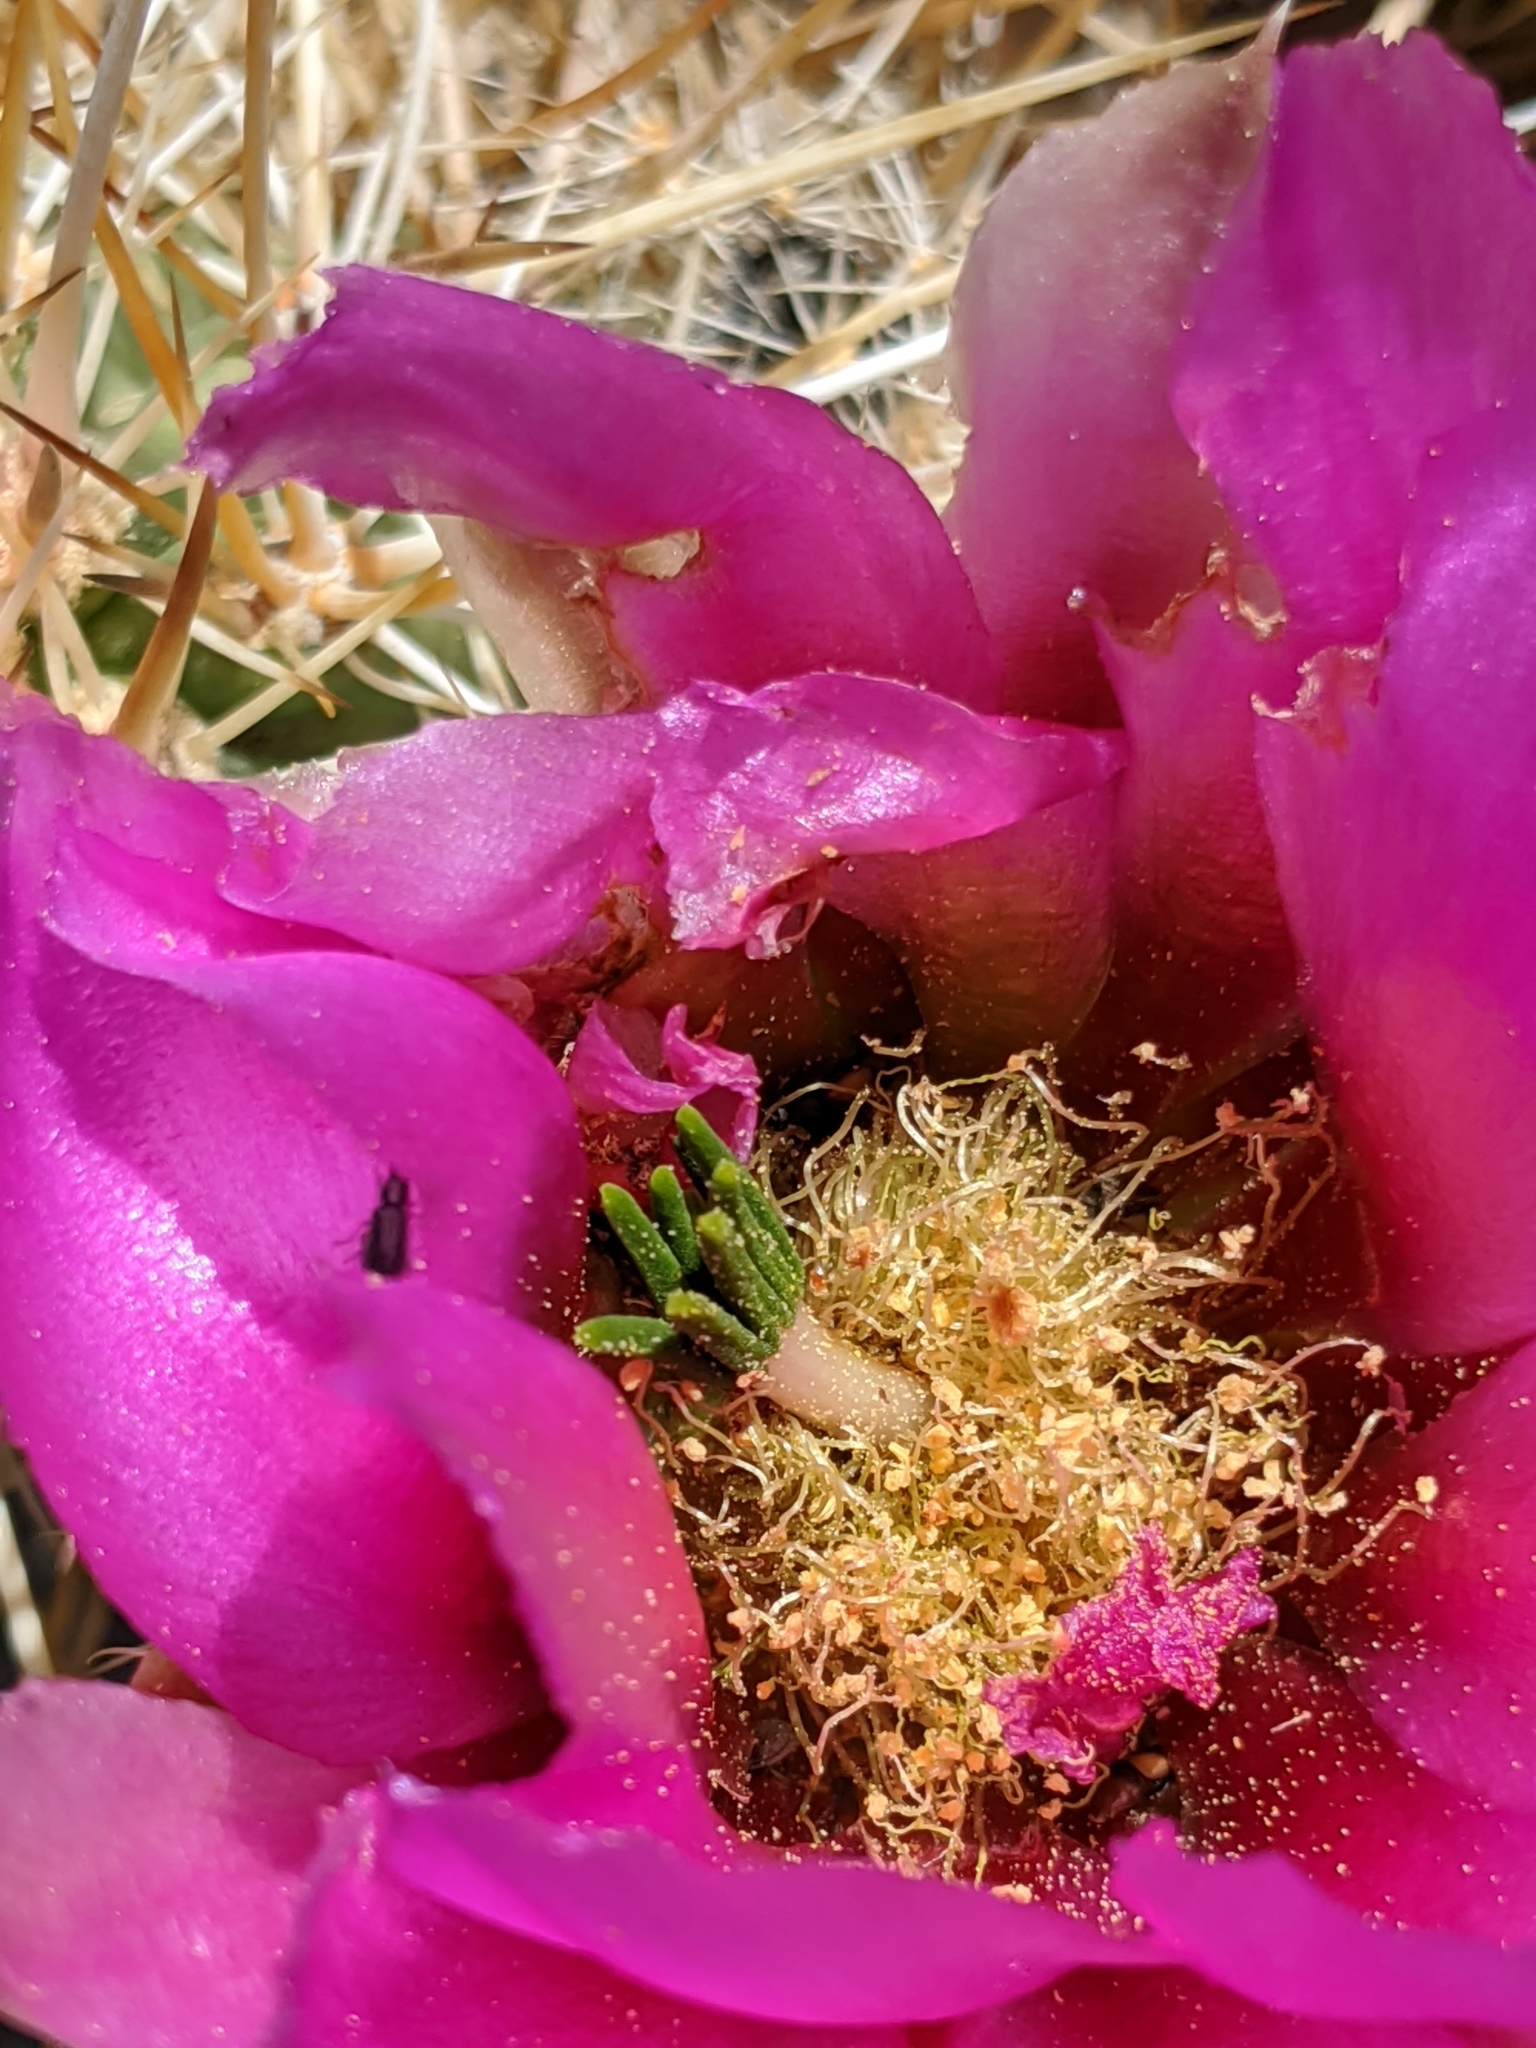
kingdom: Plantae
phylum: Tracheophyta
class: Magnoliopsida
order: Caryophyllales
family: Cactaceae
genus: Echinocereus
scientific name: Echinocereus engelmannii
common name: Engelmann's hedgehog cactus
